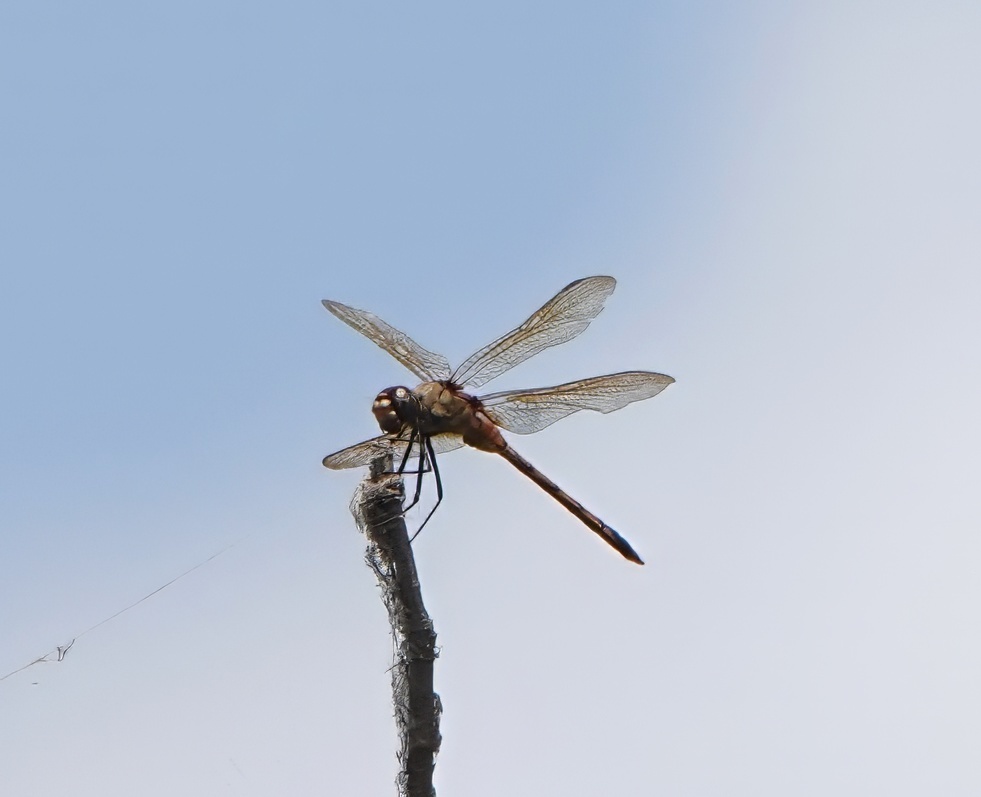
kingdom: Animalia
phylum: Arthropoda
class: Insecta
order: Odonata
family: Libellulidae
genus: Brachymesia
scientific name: Brachymesia herbida
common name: Tawny pennant
